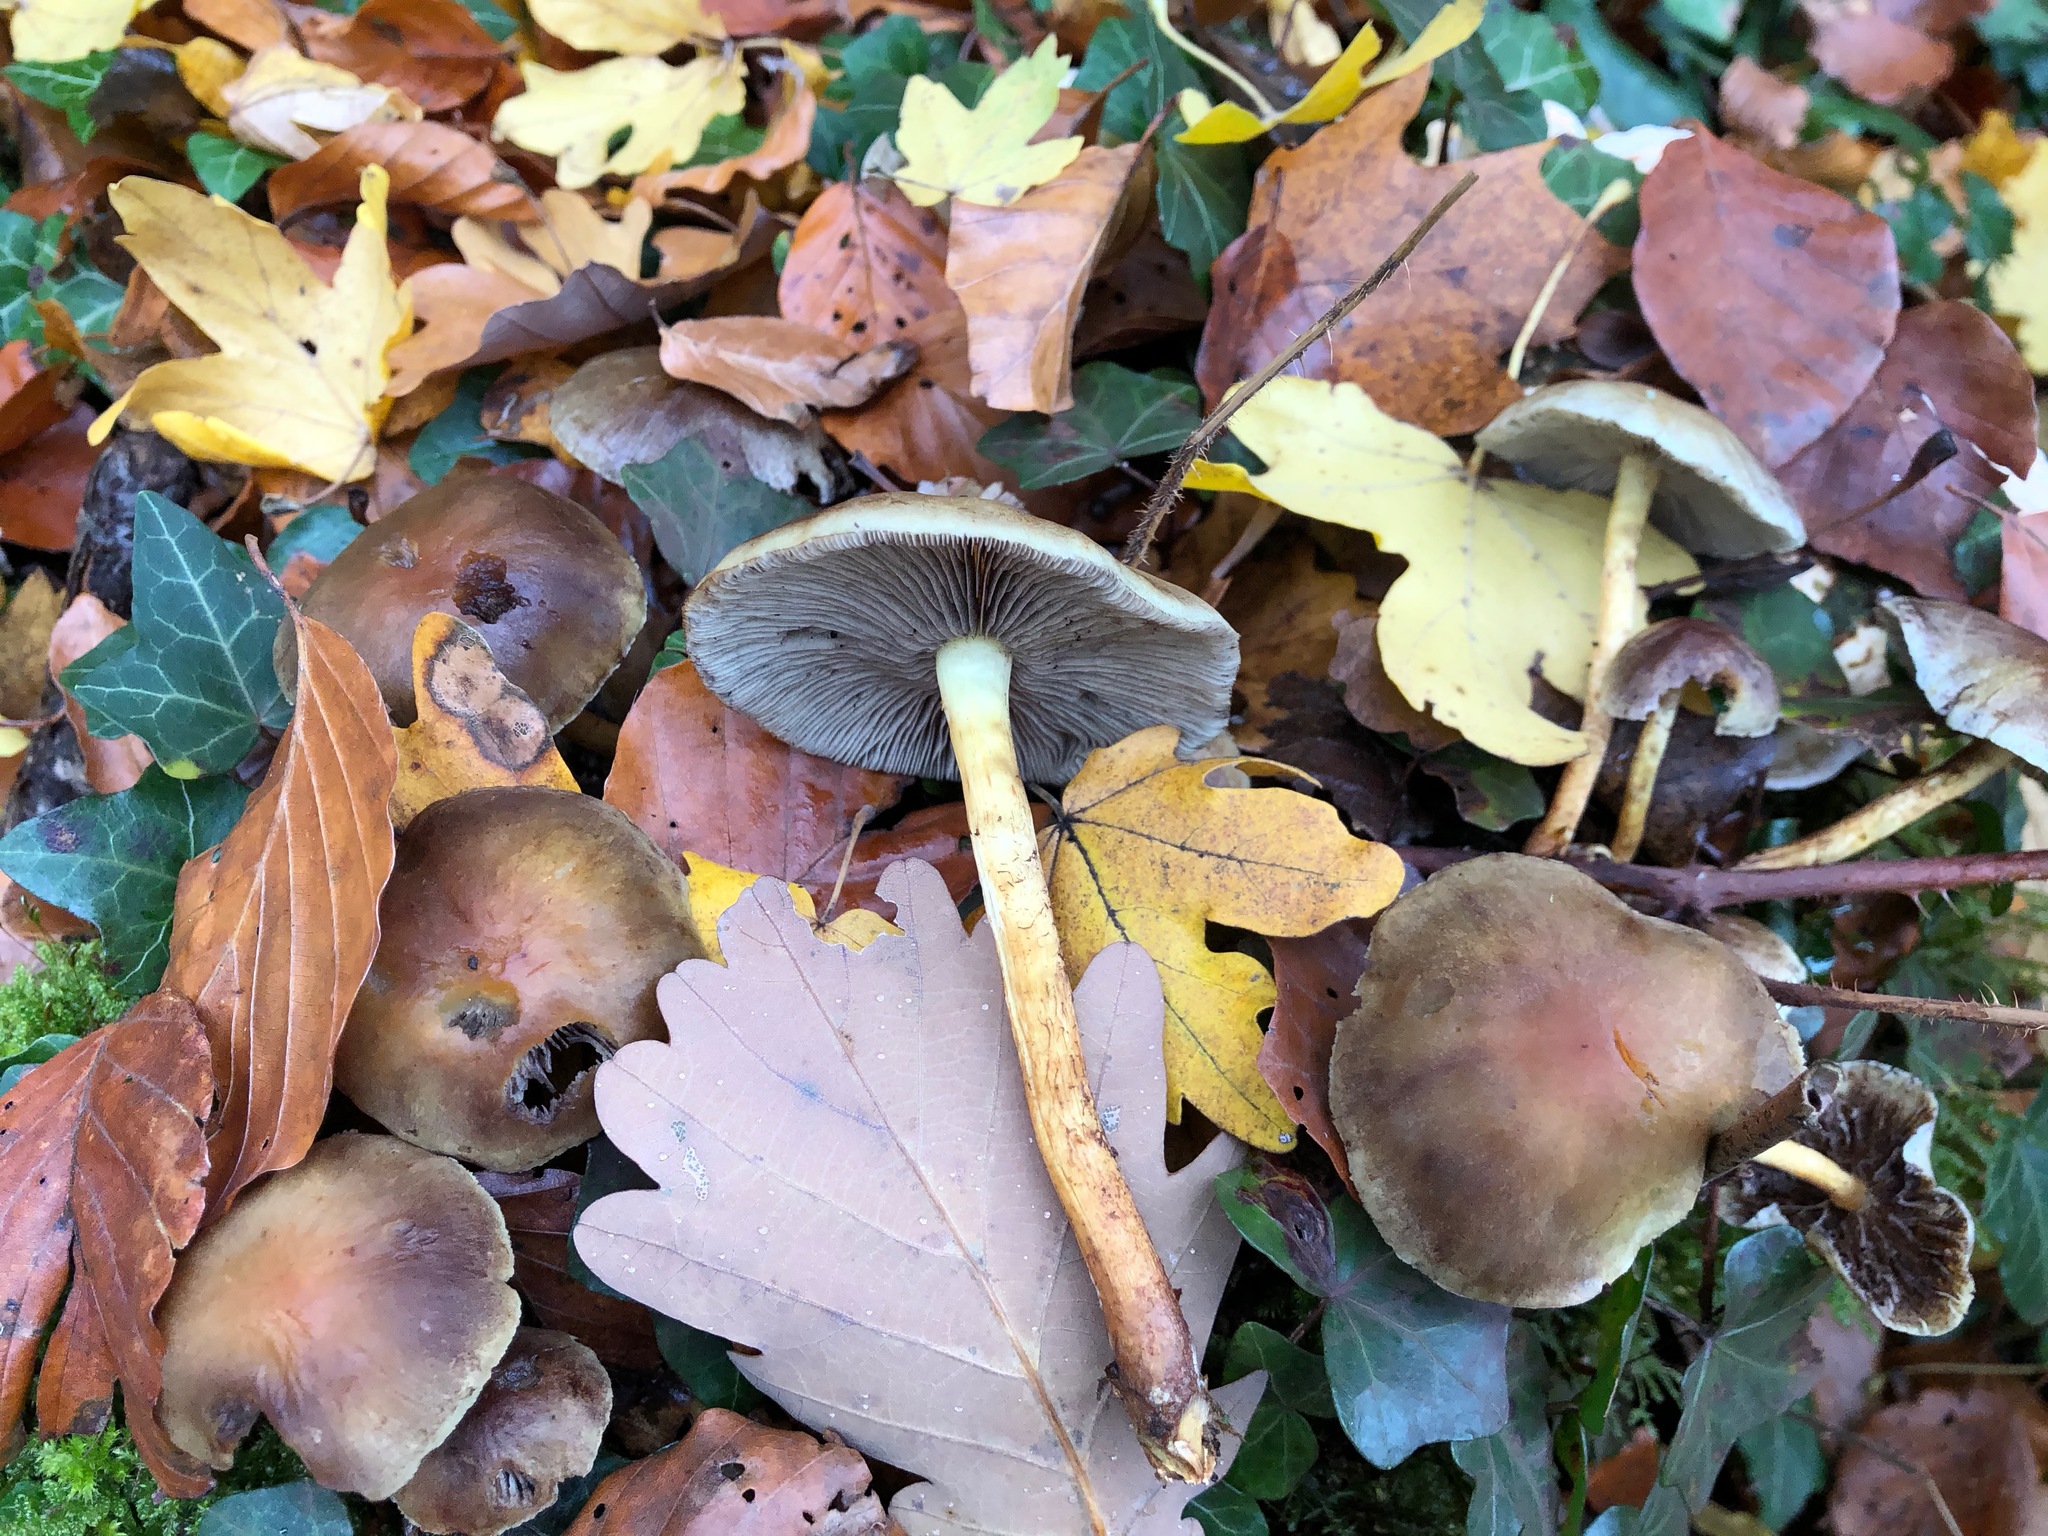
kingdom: Fungi
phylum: Basidiomycota
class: Agaricomycetes
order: Agaricales
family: Strophariaceae
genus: Hypholoma
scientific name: Hypholoma fasciculare
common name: Sulphur tuft
